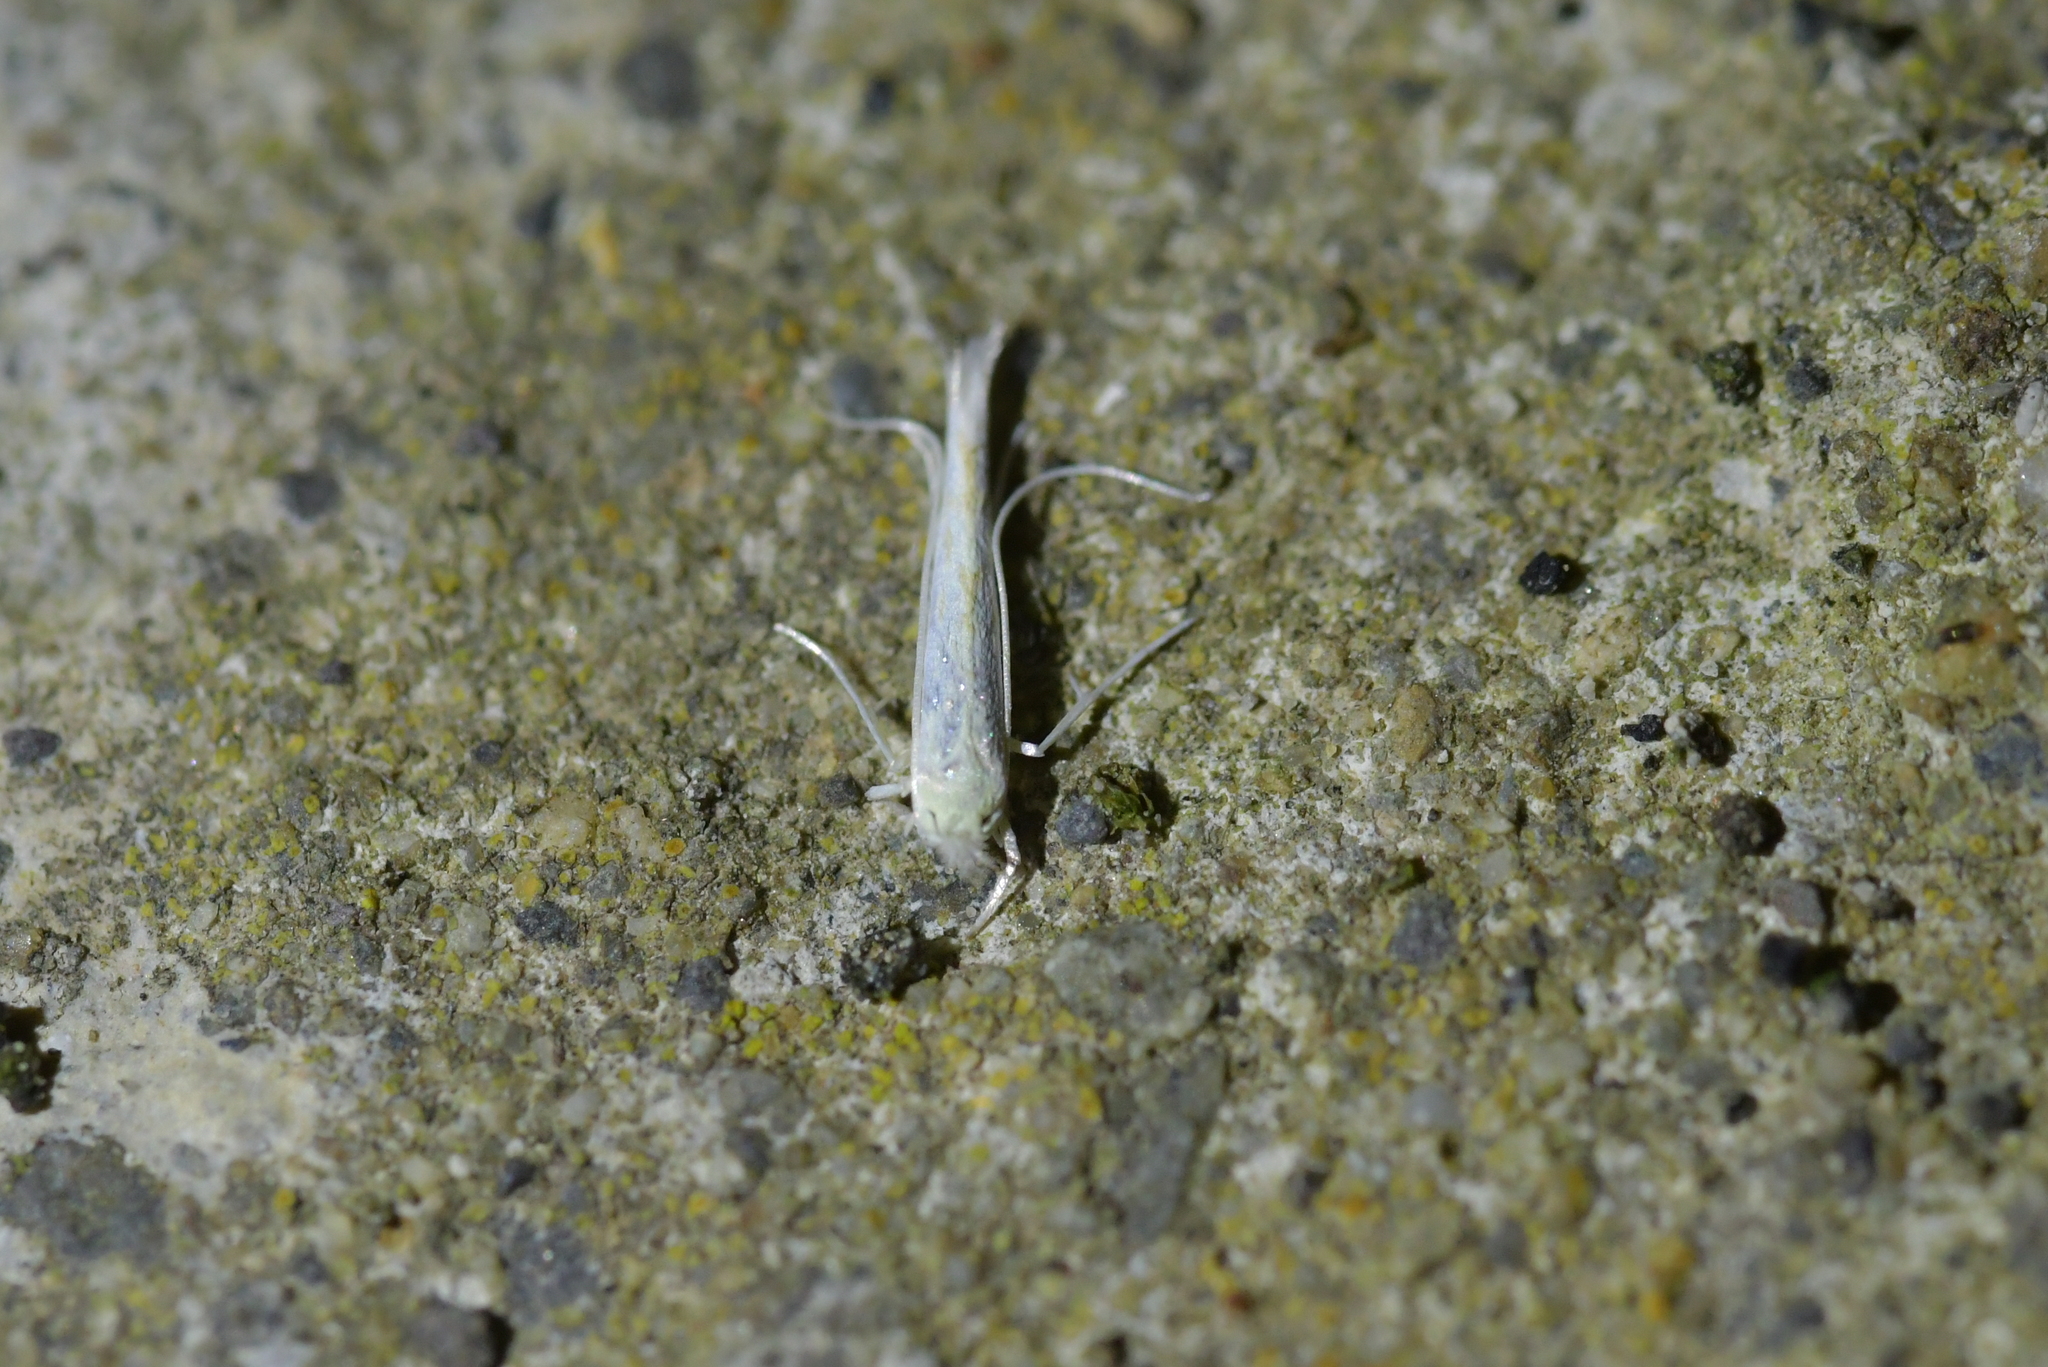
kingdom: Animalia
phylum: Arthropoda
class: Insecta
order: Lepidoptera
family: Lyonetiidae
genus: Stegommata
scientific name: Stegommata sulfuratella
